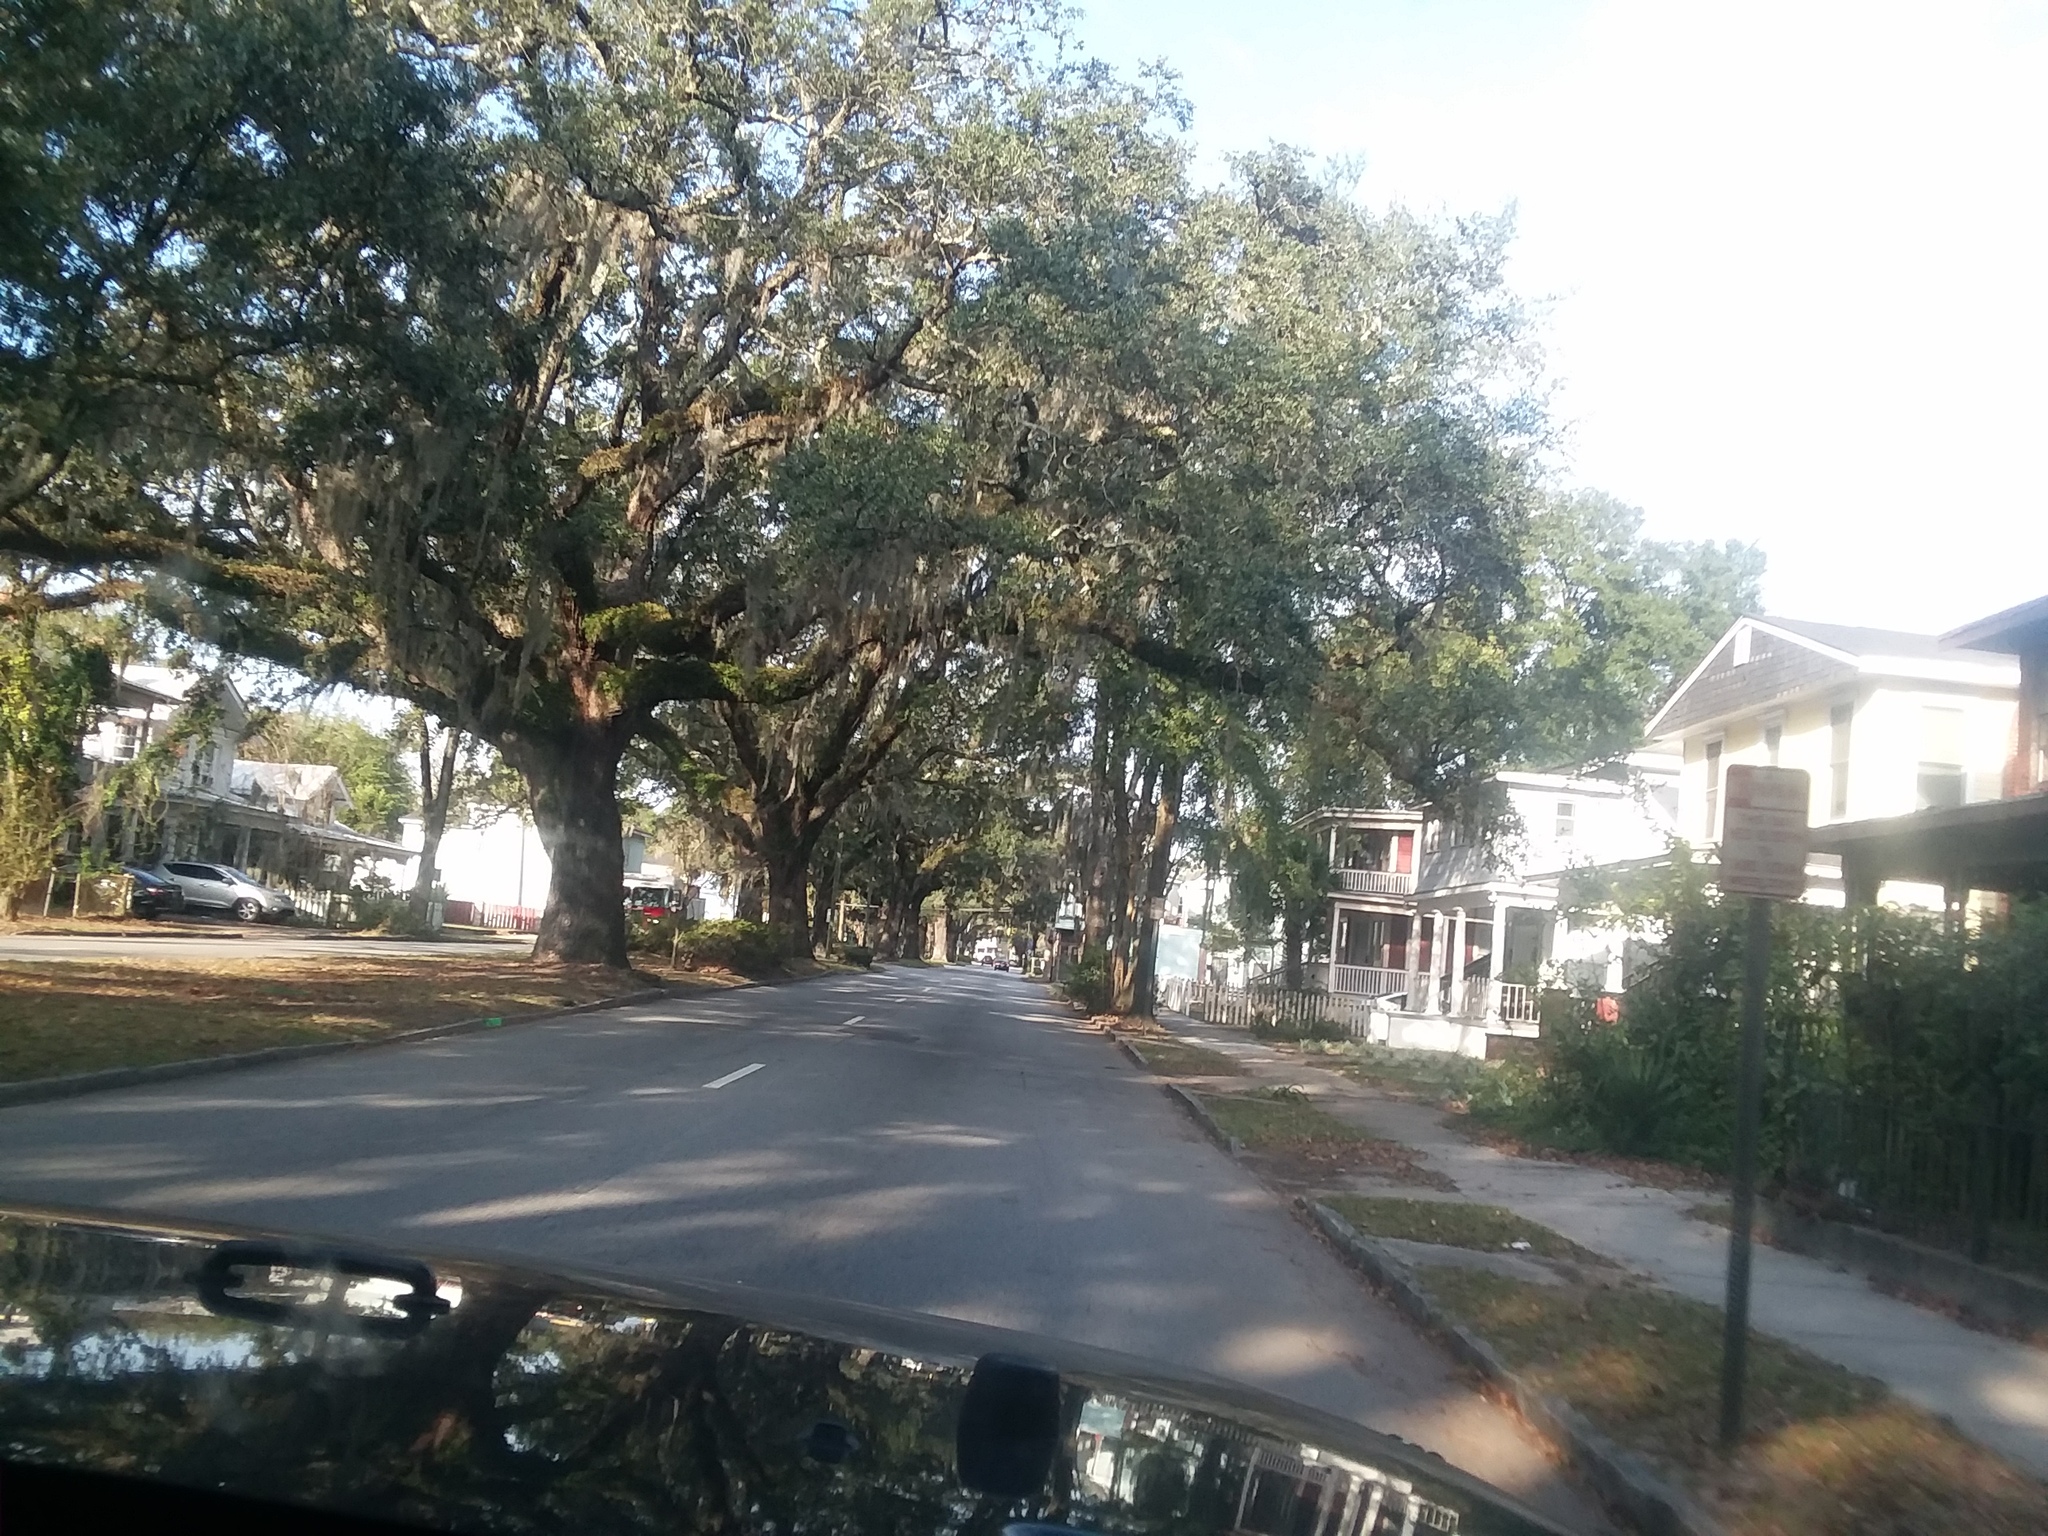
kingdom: Plantae
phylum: Tracheophyta
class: Liliopsida
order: Poales
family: Bromeliaceae
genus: Tillandsia
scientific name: Tillandsia usneoides
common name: Spanish moss
